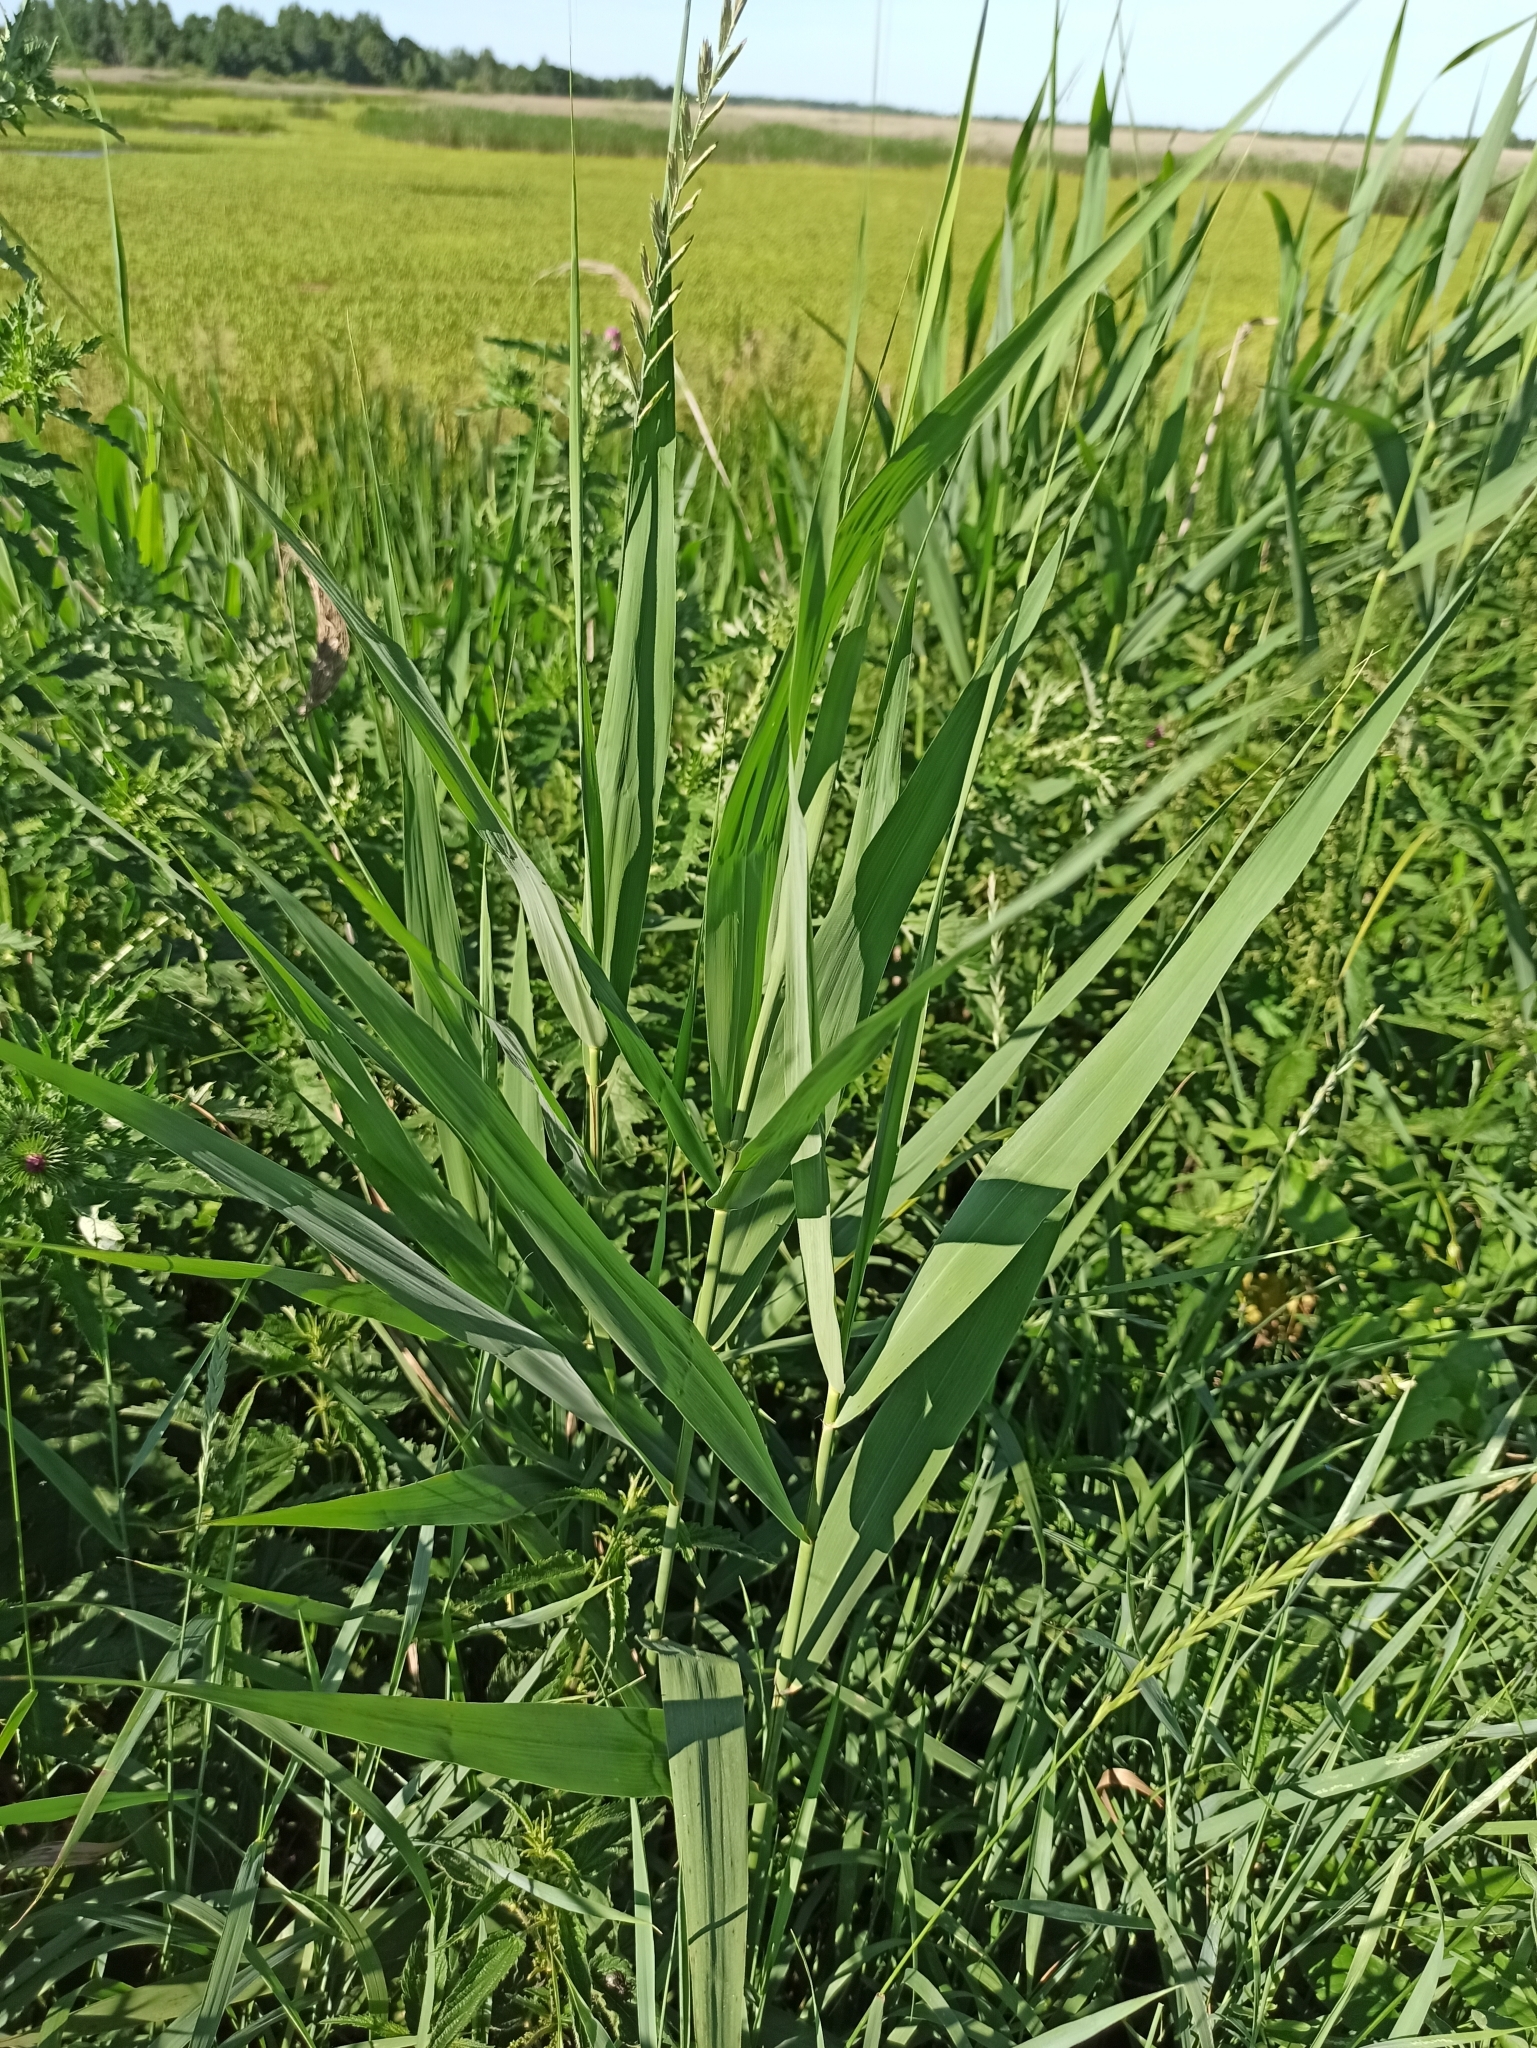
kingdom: Plantae
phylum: Tracheophyta
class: Liliopsida
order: Poales
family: Poaceae
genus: Phragmites
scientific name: Phragmites australis
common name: Common reed
